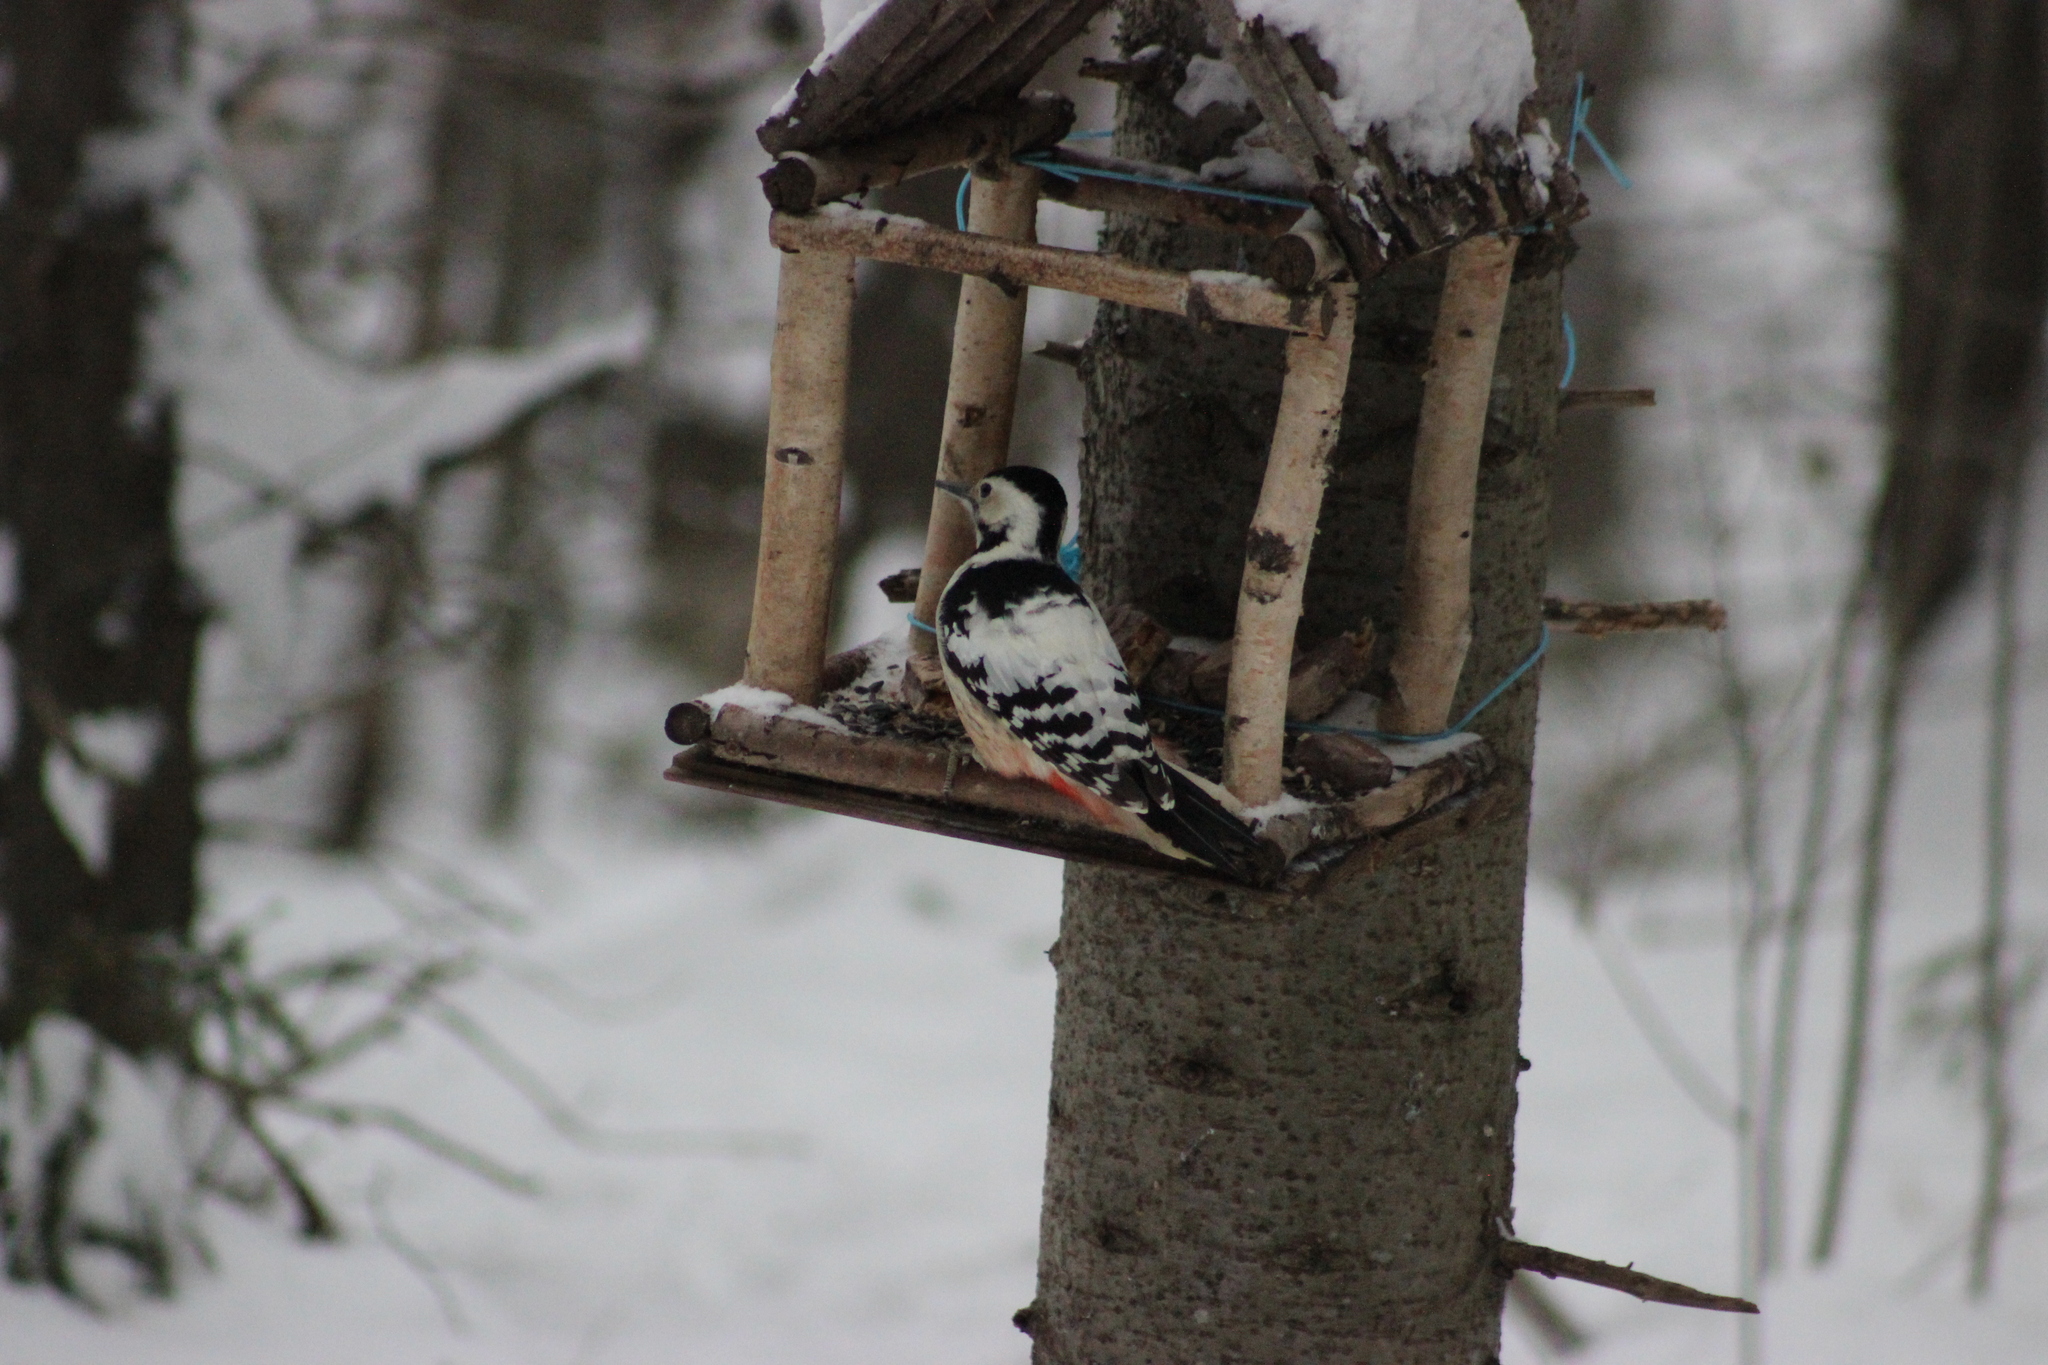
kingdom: Animalia
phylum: Chordata
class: Aves
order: Piciformes
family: Picidae
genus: Dendrocopos
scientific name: Dendrocopos leucotos
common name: White-backed woodpecker
